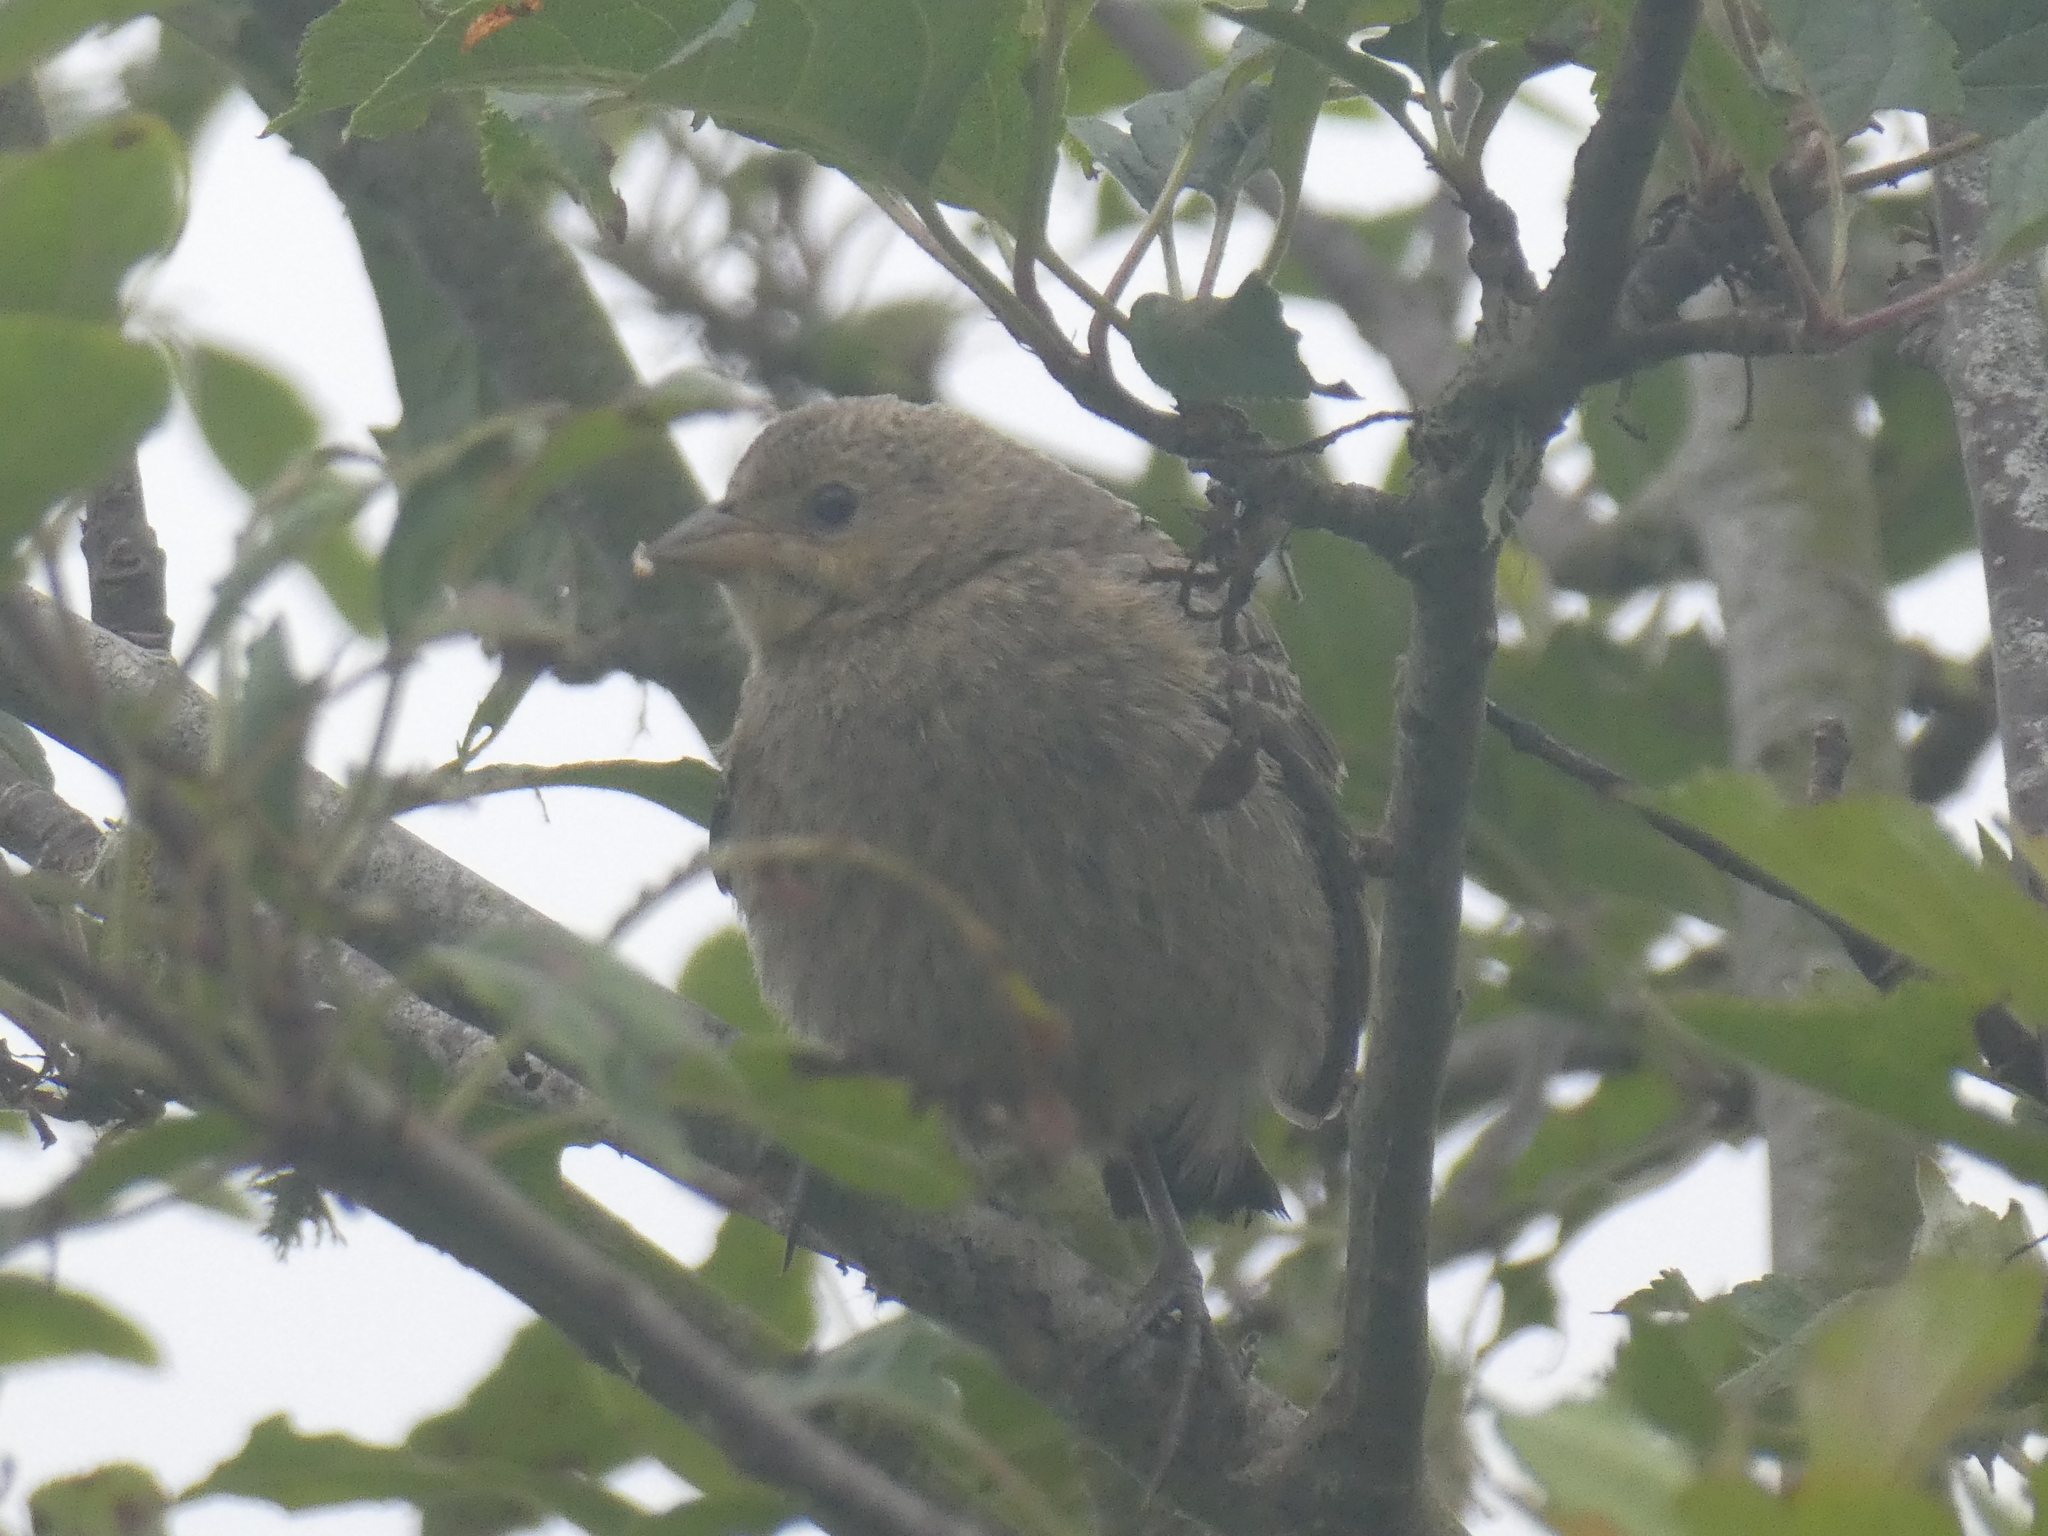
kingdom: Animalia
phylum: Chordata
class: Aves
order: Passeriformes
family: Icteridae
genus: Molothrus
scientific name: Molothrus ater
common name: Brown-headed cowbird
